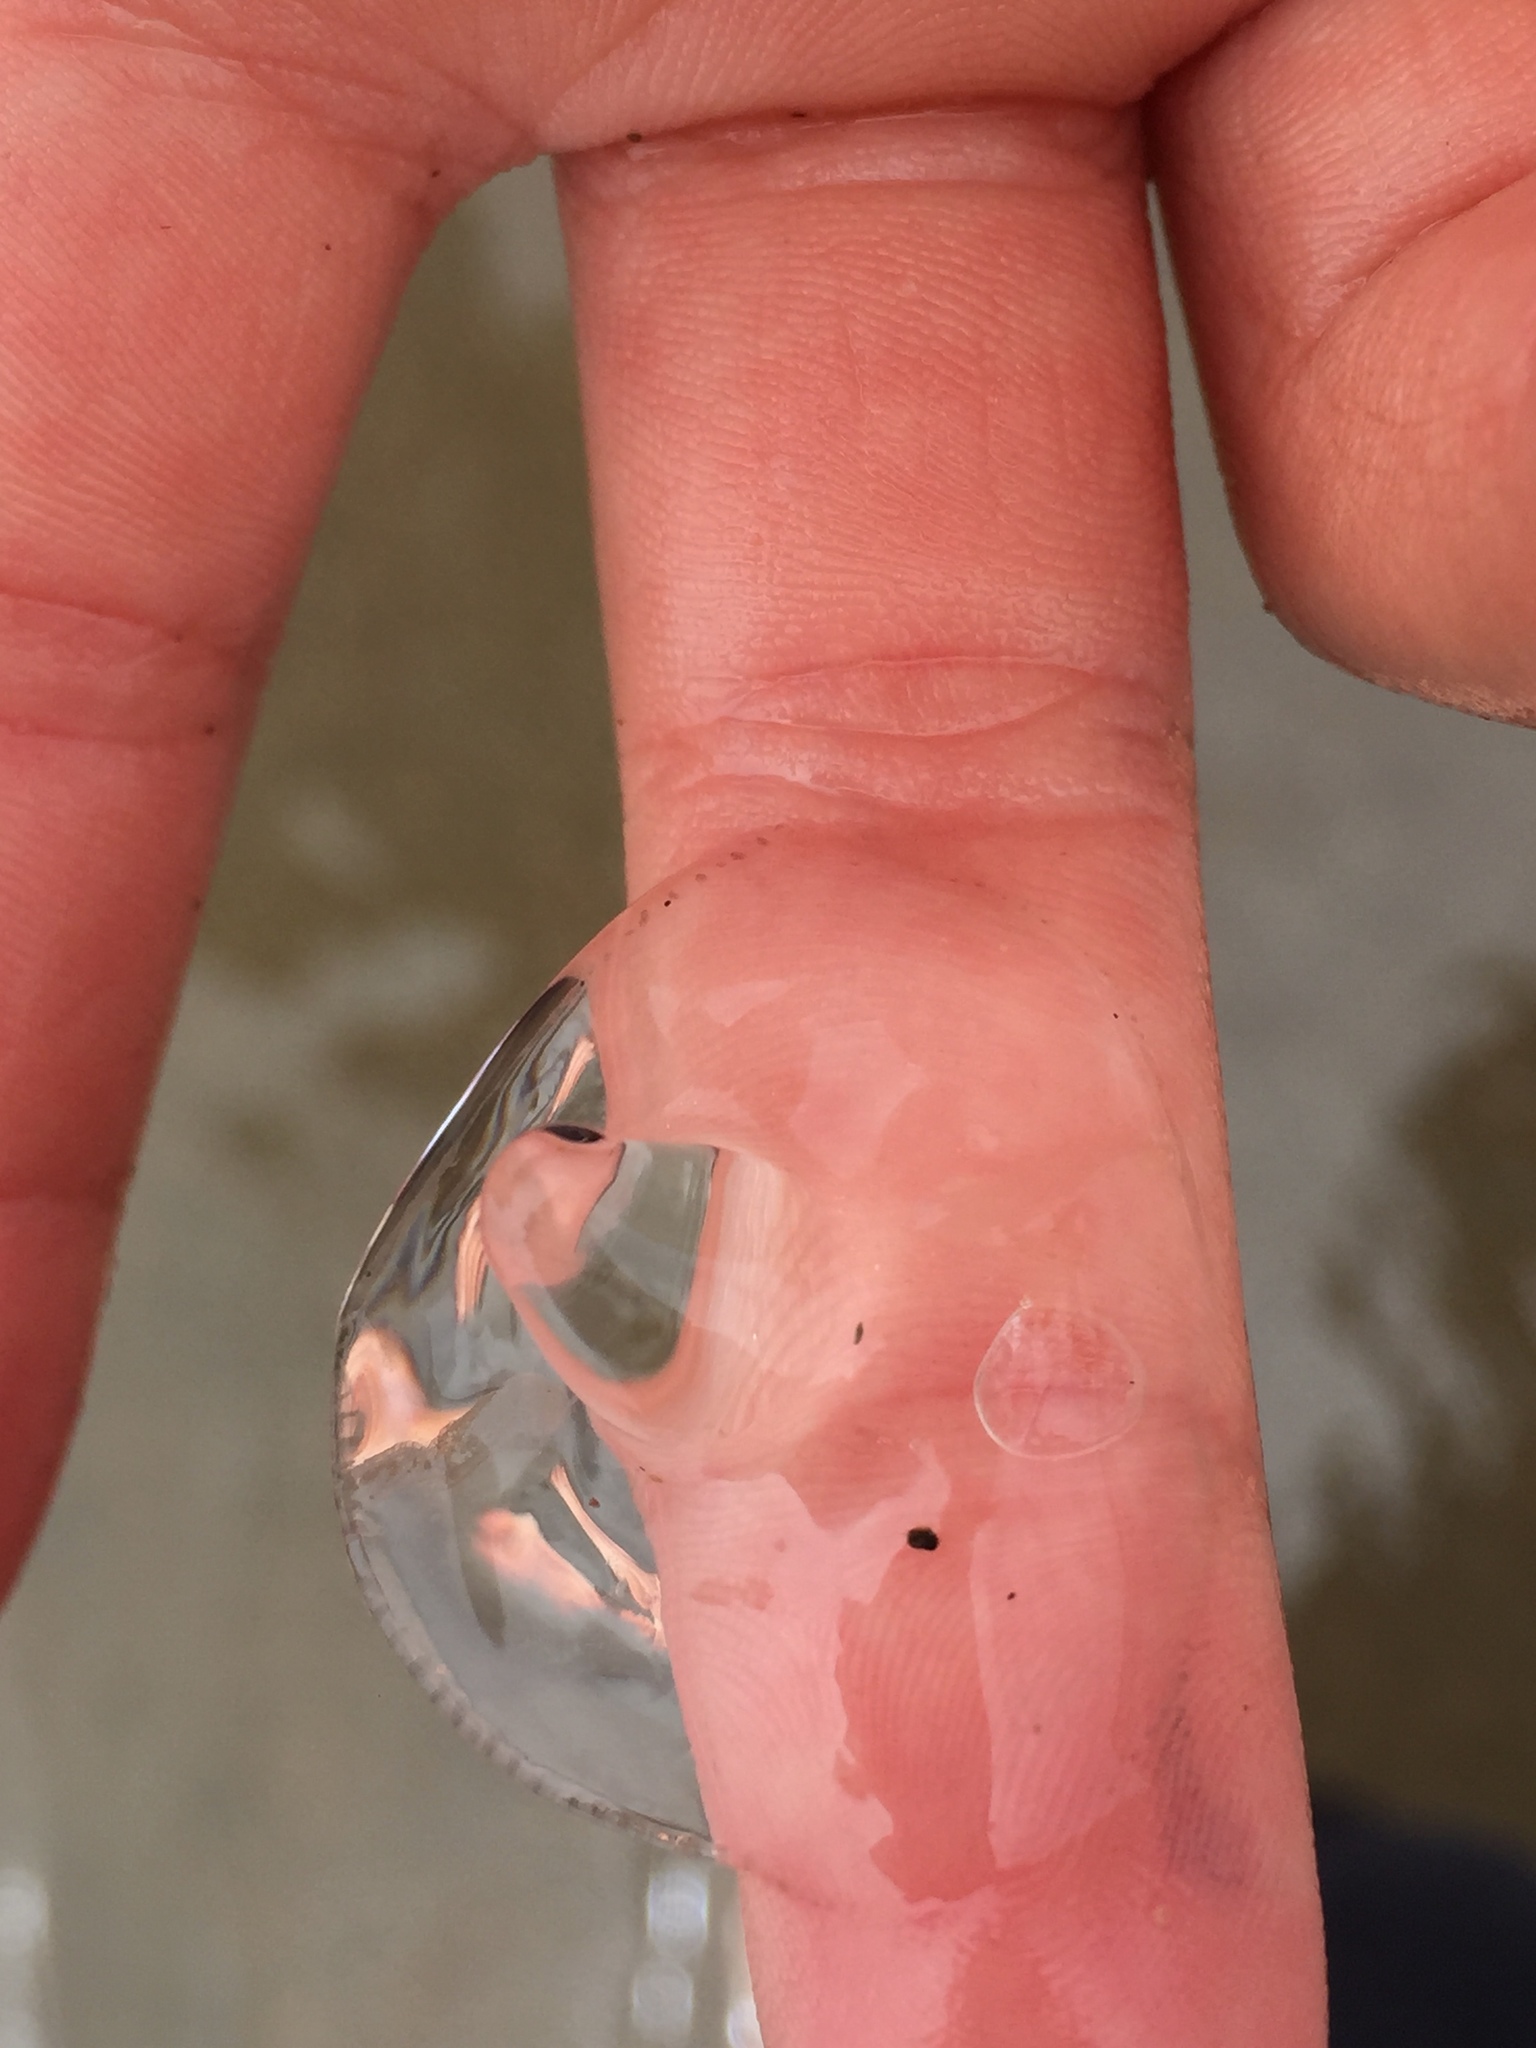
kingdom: Animalia
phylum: Cnidaria
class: Hydrozoa
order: Leptothecata
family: Eirenidae
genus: Eutonina
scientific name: Eutonina indicans
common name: Umbrella jellyfish
